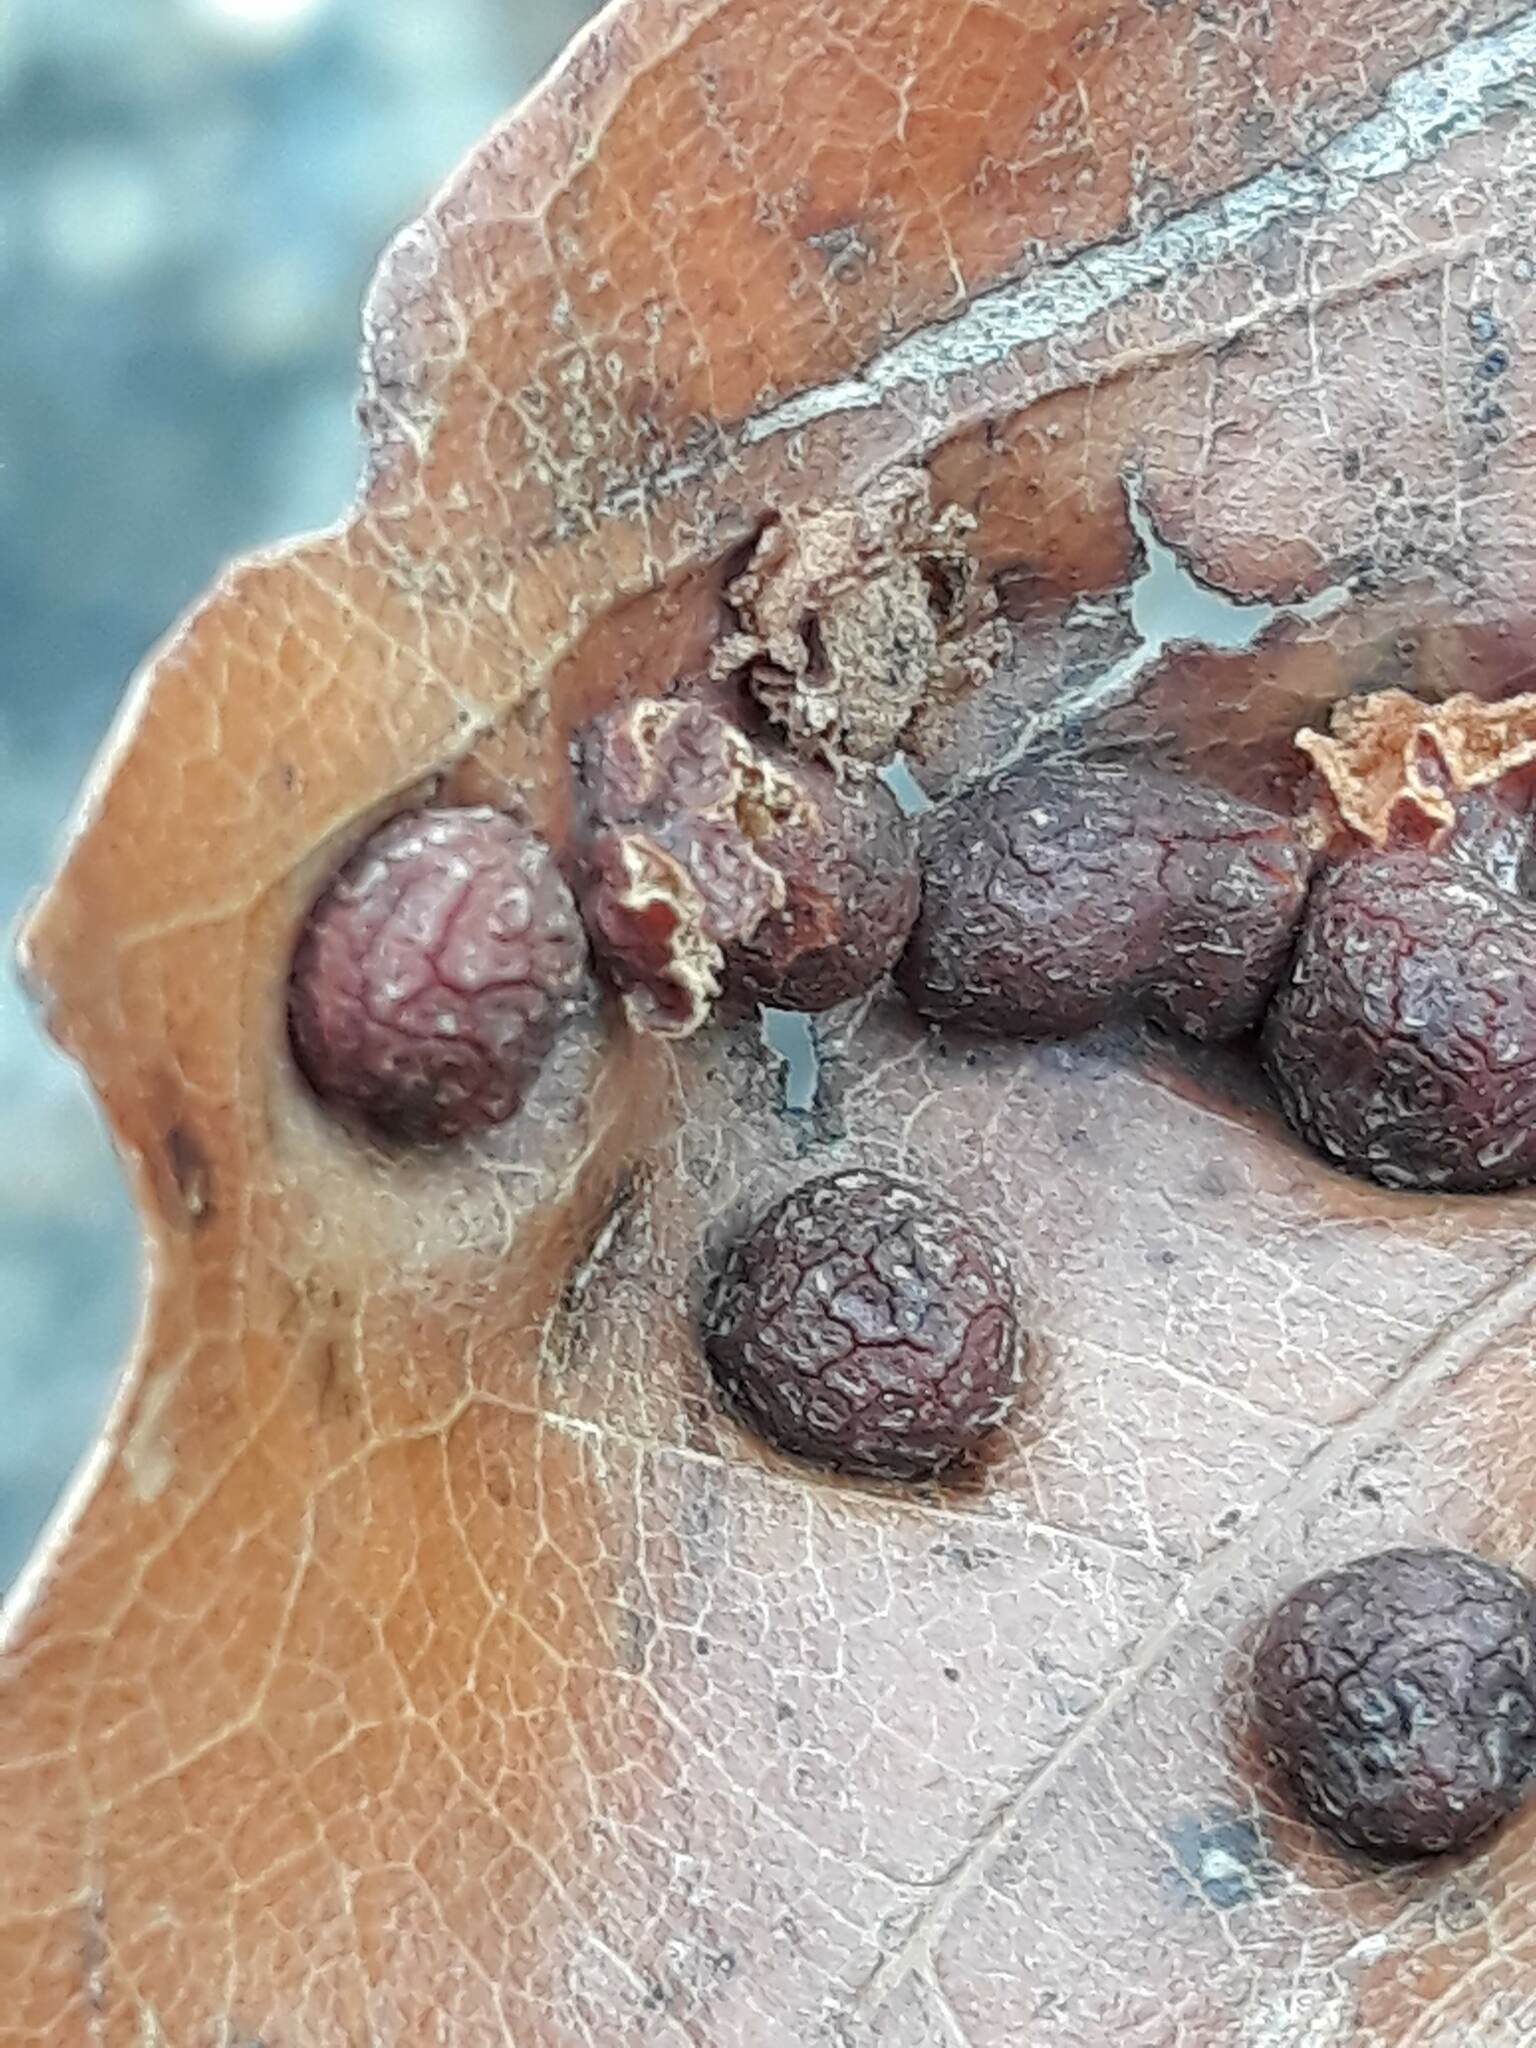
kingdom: Animalia
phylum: Arthropoda
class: Insecta
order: Diptera
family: Cecidomyiidae
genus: Polystepha
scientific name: Polystepha pilulae
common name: Oak leaf gall midge
